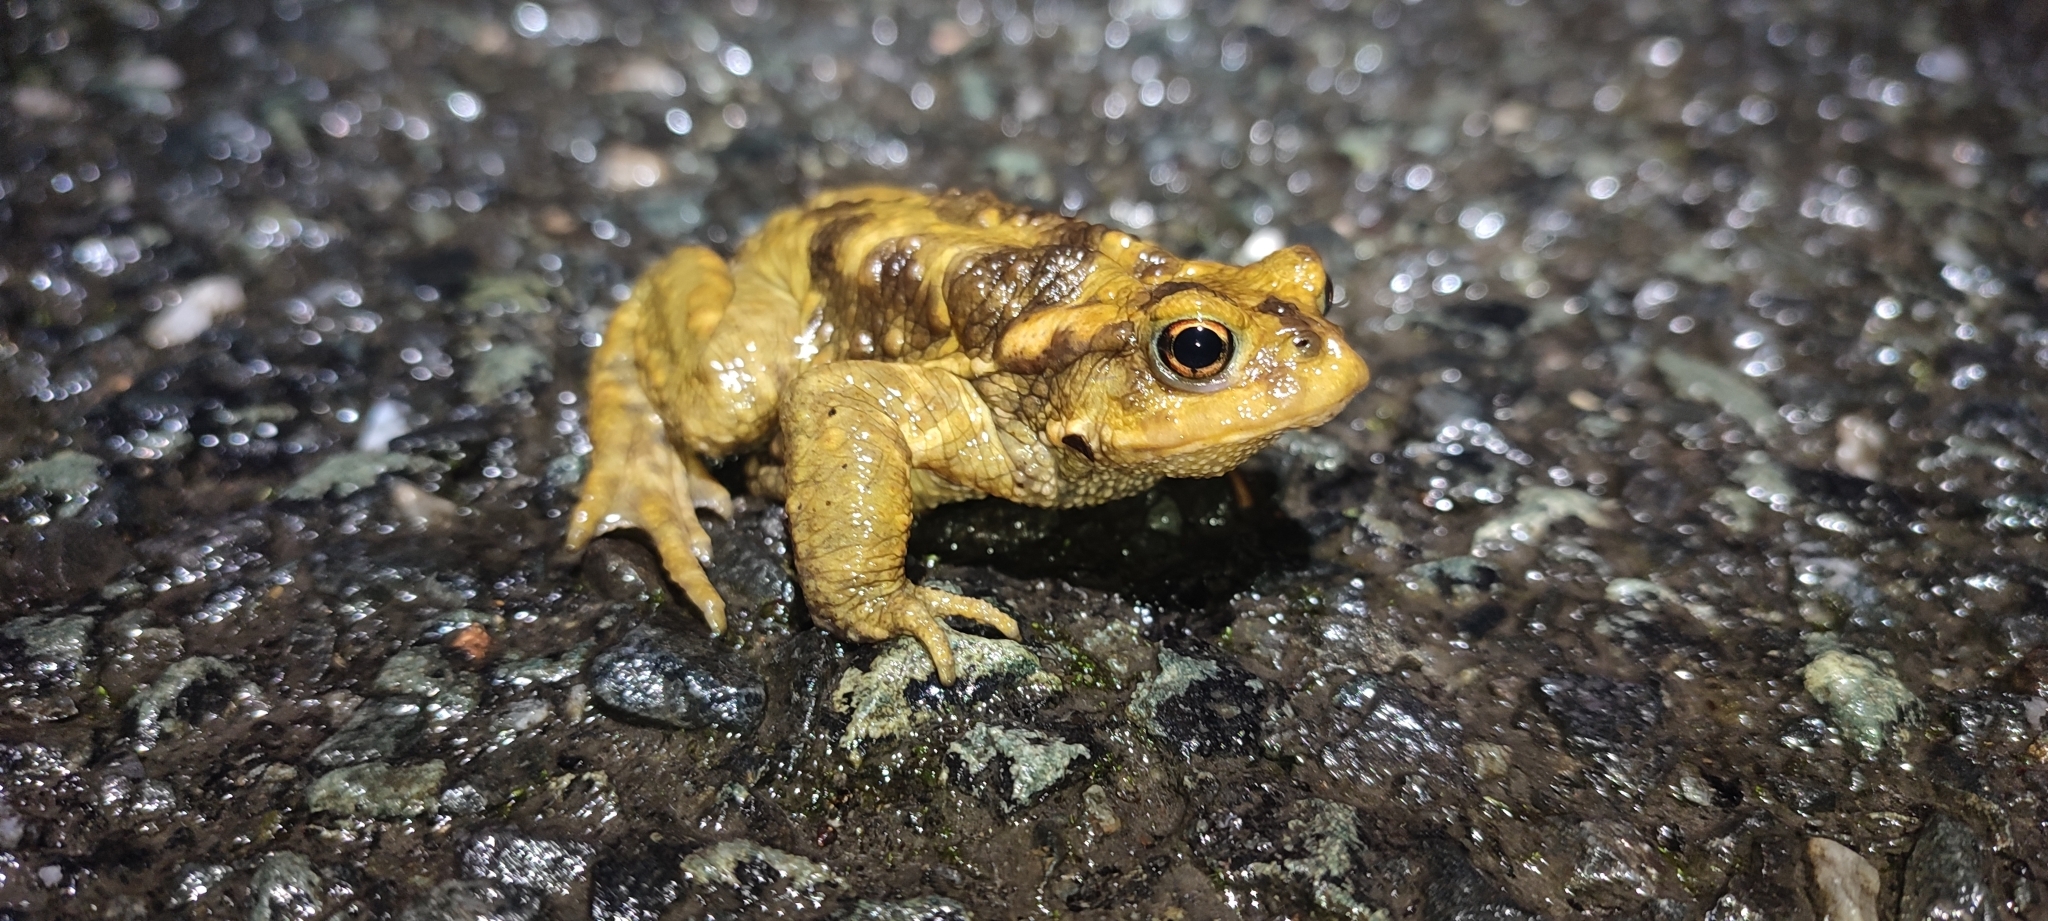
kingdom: Animalia
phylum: Chordata
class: Amphibia
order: Anura
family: Bufonidae
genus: Bufo
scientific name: Bufo spinosus
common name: Western common toad
